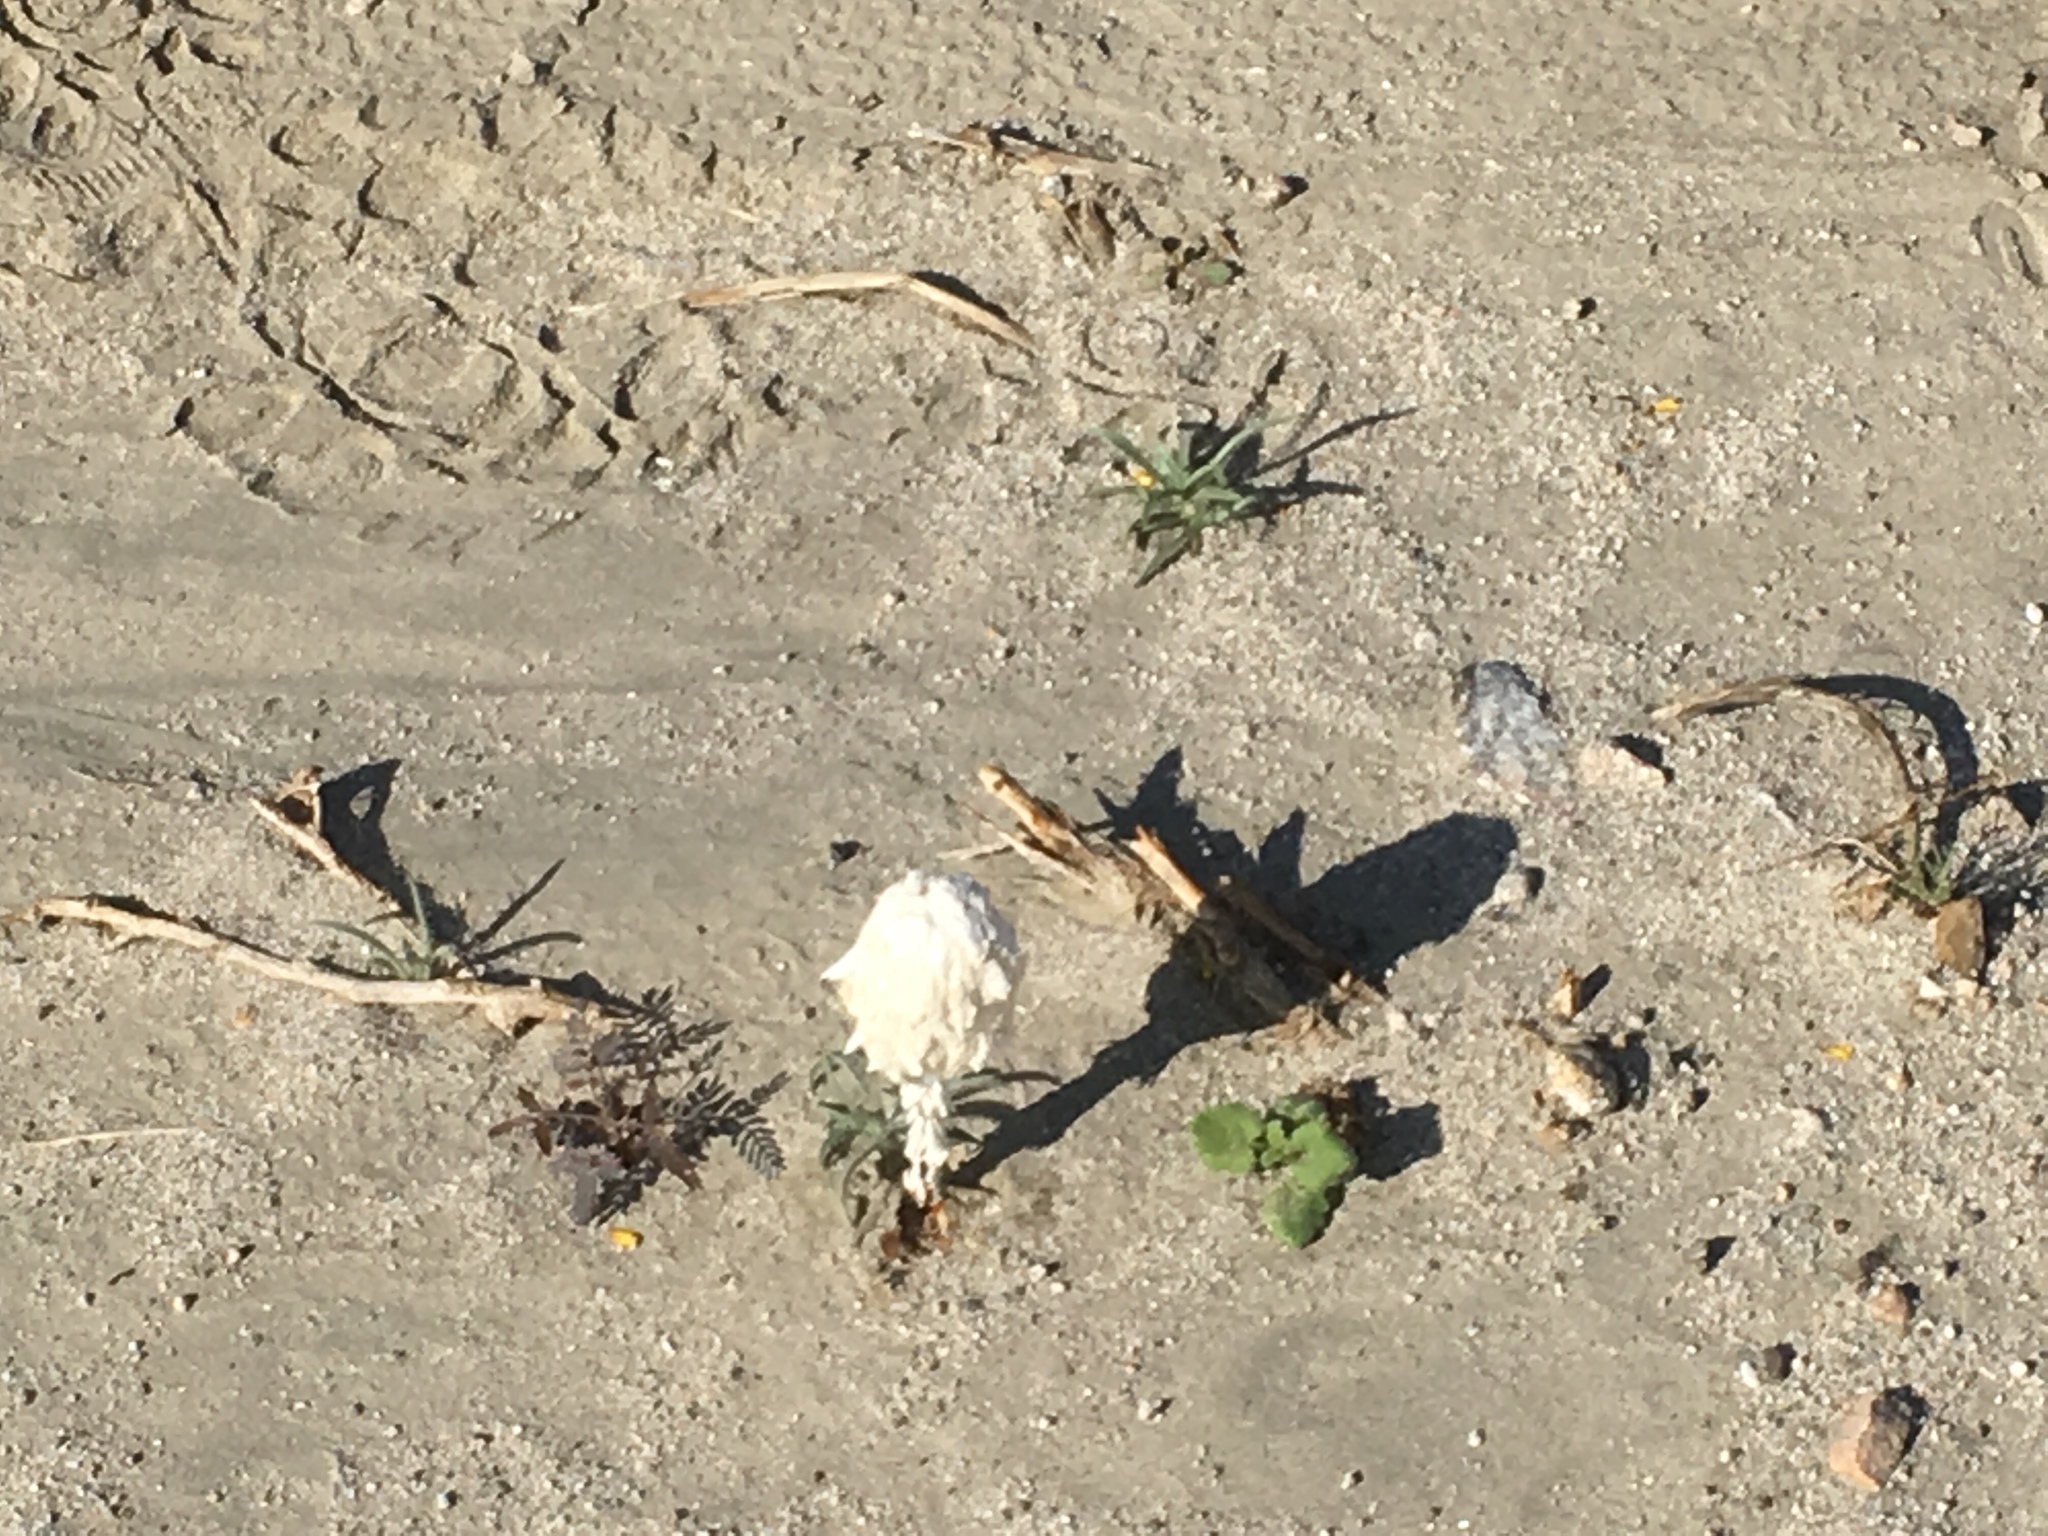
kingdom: Fungi
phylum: Basidiomycota
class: Agaricomycetes
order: Agaricales
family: Agaricaceae
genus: Podaxis
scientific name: Podaxis pistillaris
